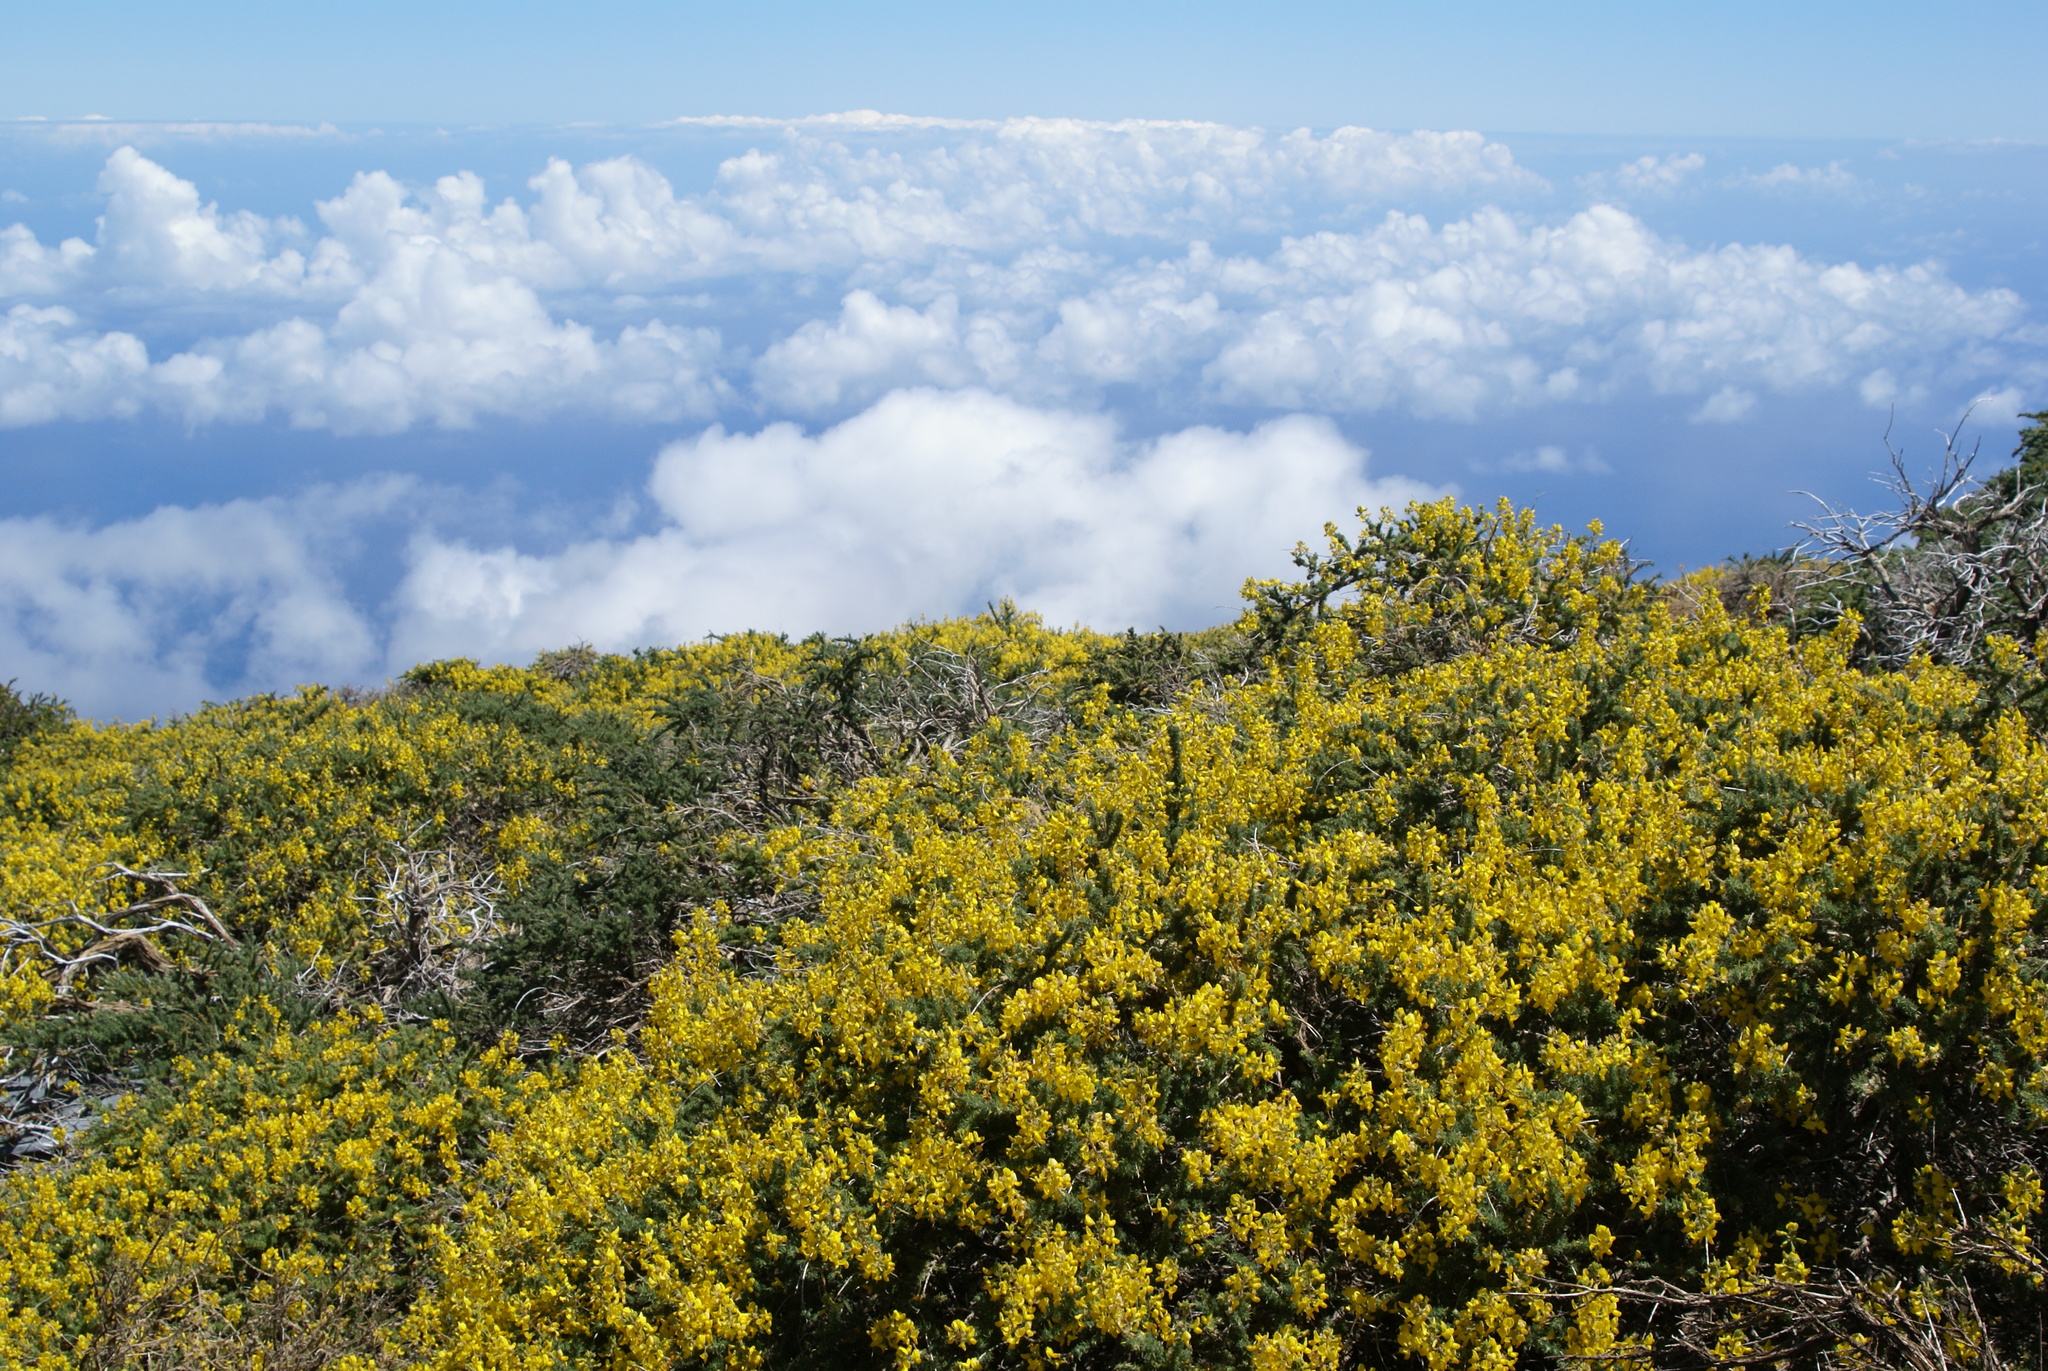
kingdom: Plantae
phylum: Tracheophyta
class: Magnoliopsida
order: Fabales
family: Fabaceae
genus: Adenocarpus
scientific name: Adenocarpus viscosus
